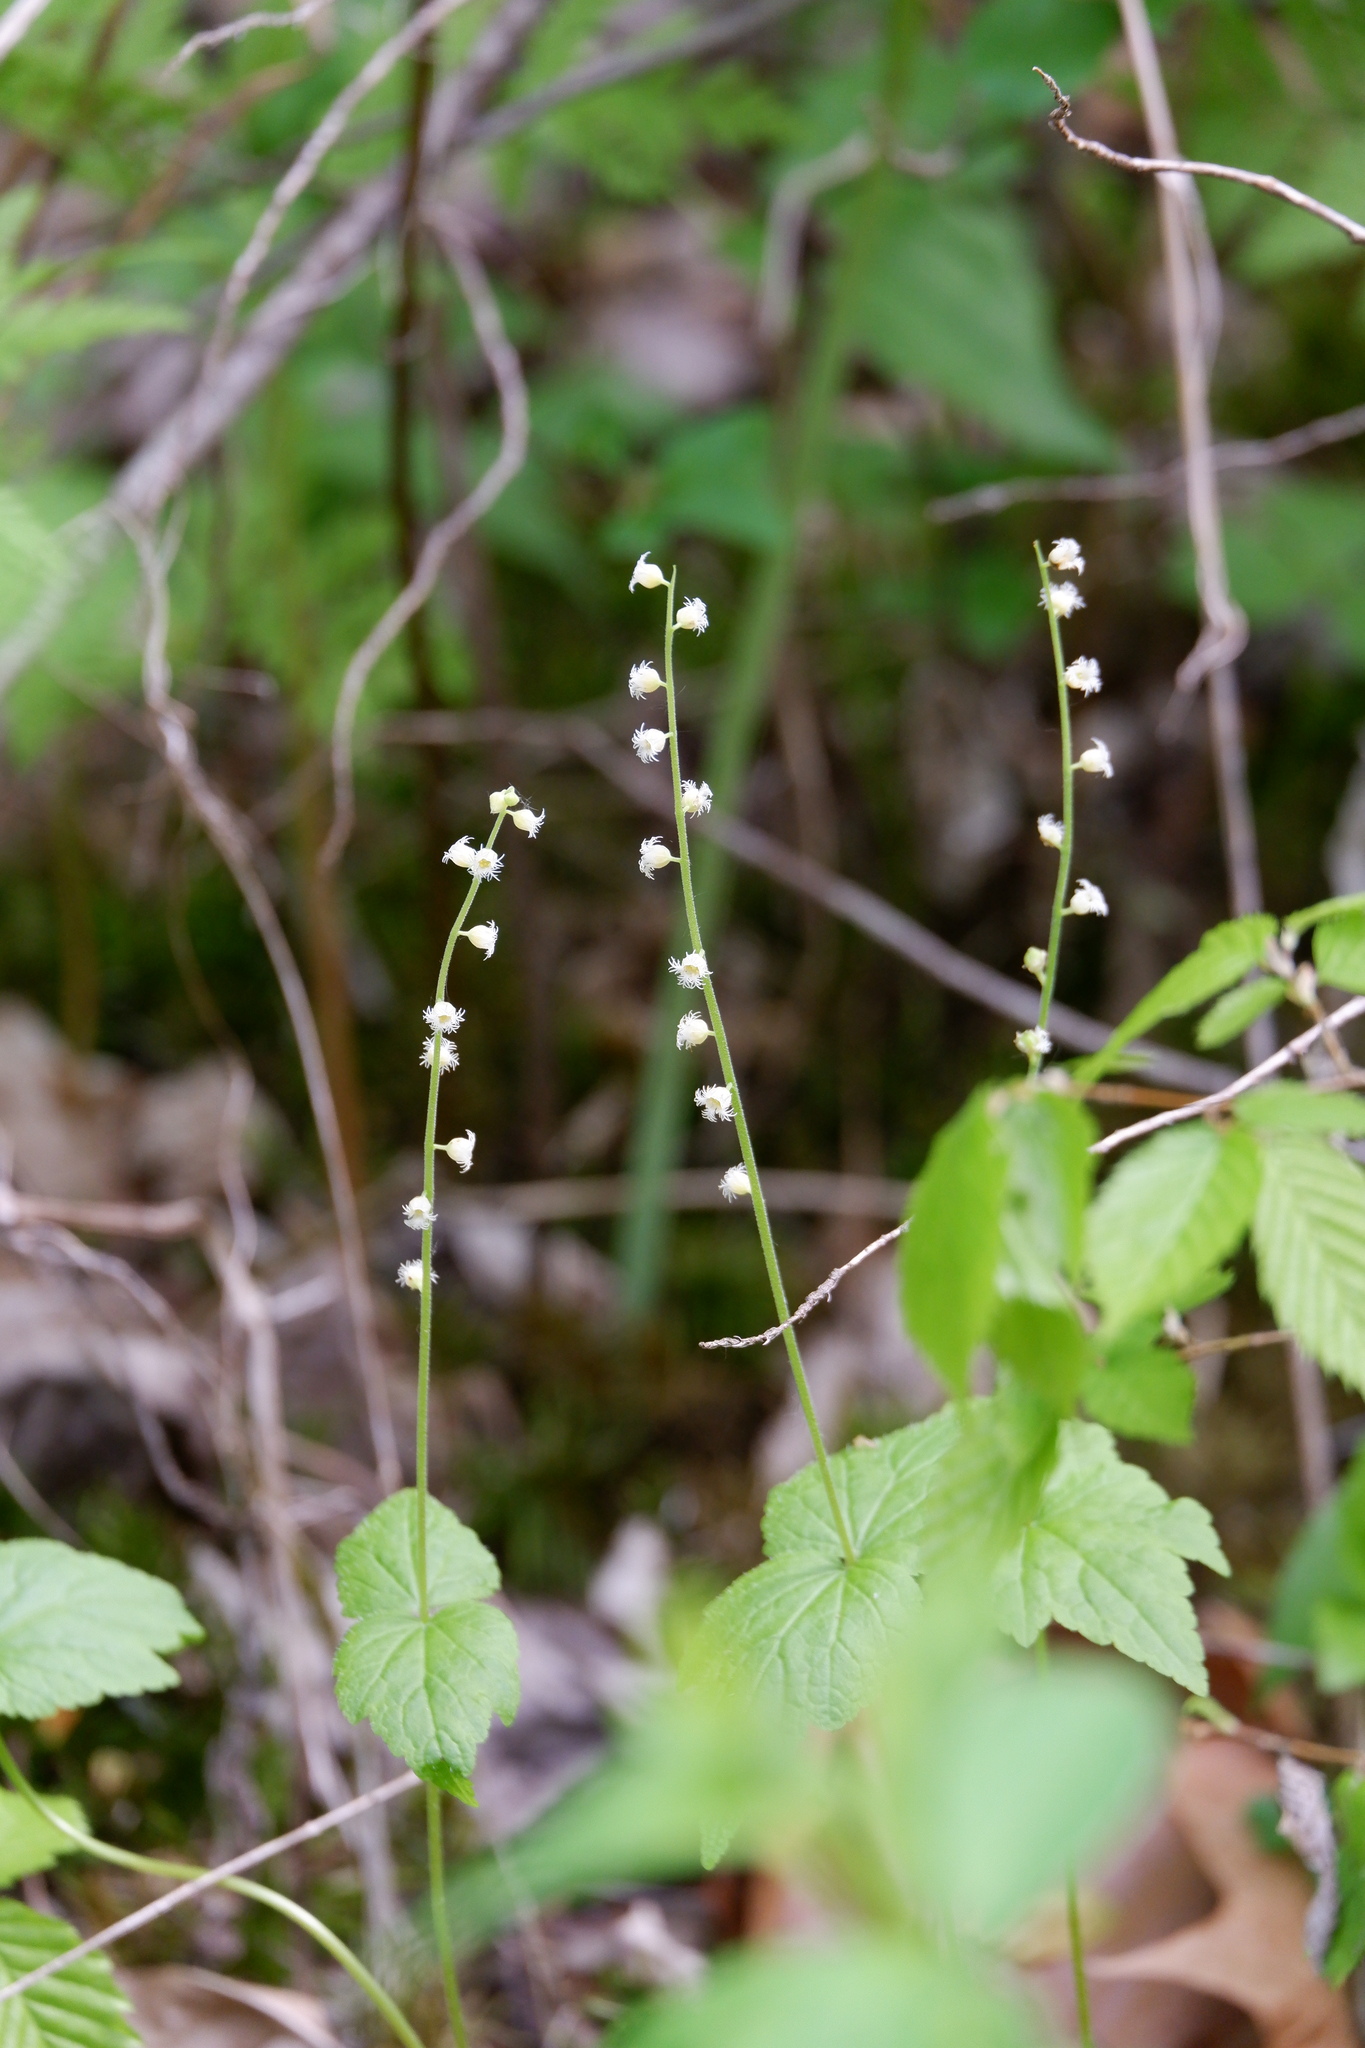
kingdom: Plantae
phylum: Tracheophyta
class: Magnoliopsida
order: Saxifragales
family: Saxifragaceae
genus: Mitella
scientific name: Mitella diphylla
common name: Coolwort
